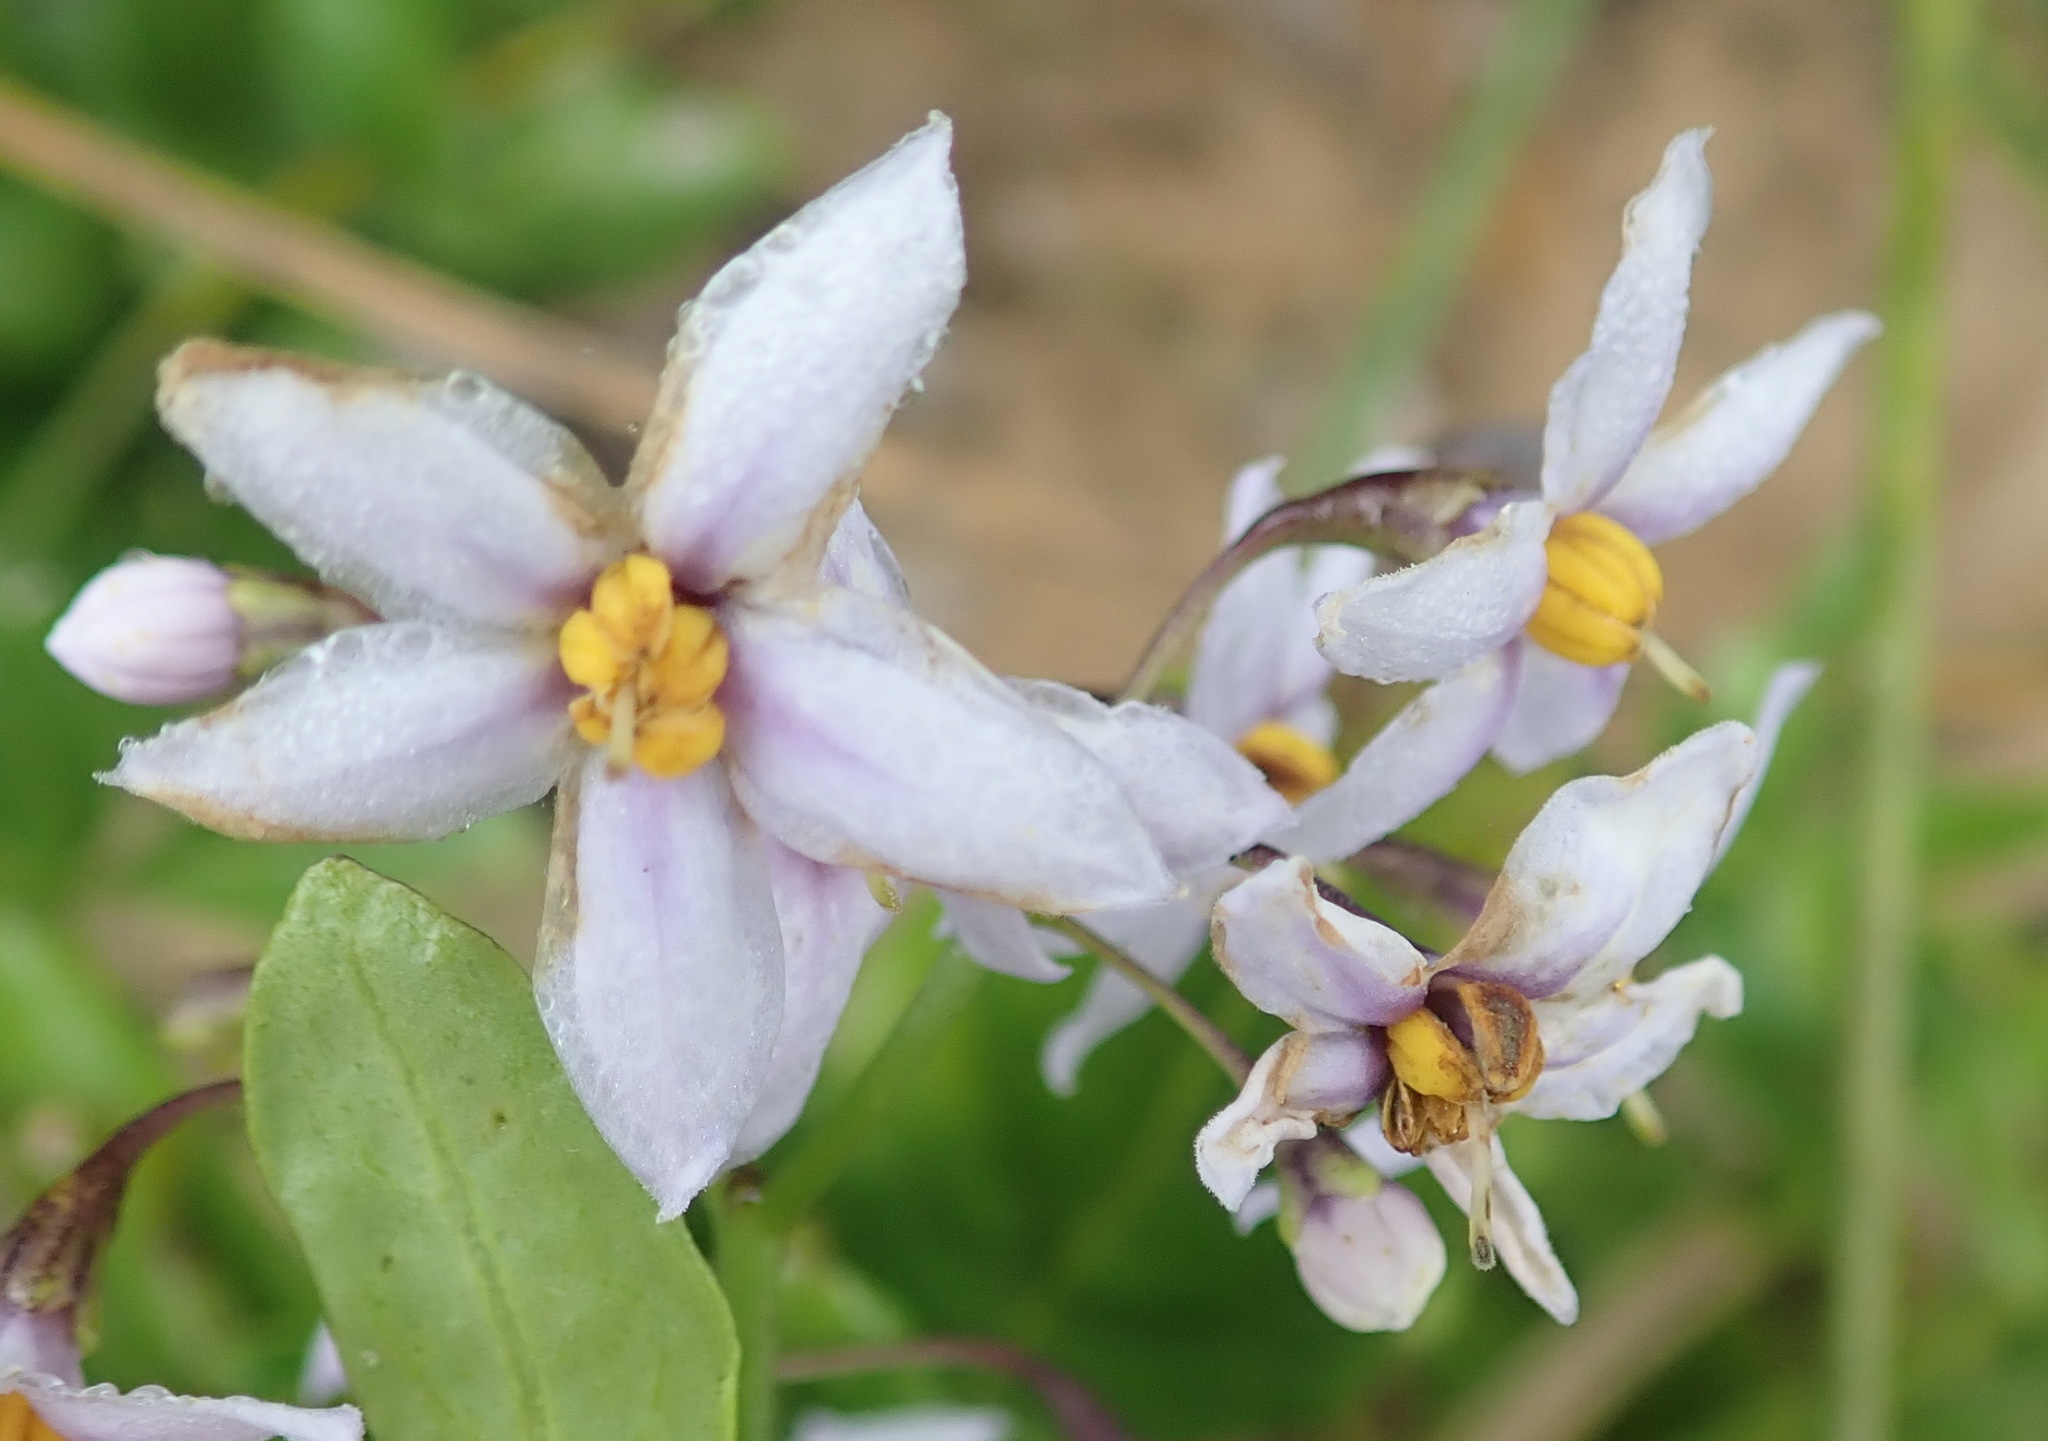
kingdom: Plantae
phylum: Tracheophyta
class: Magnoliopsida
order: Solanales
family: Solanaceae
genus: Solanum
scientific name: Solanum africanum
